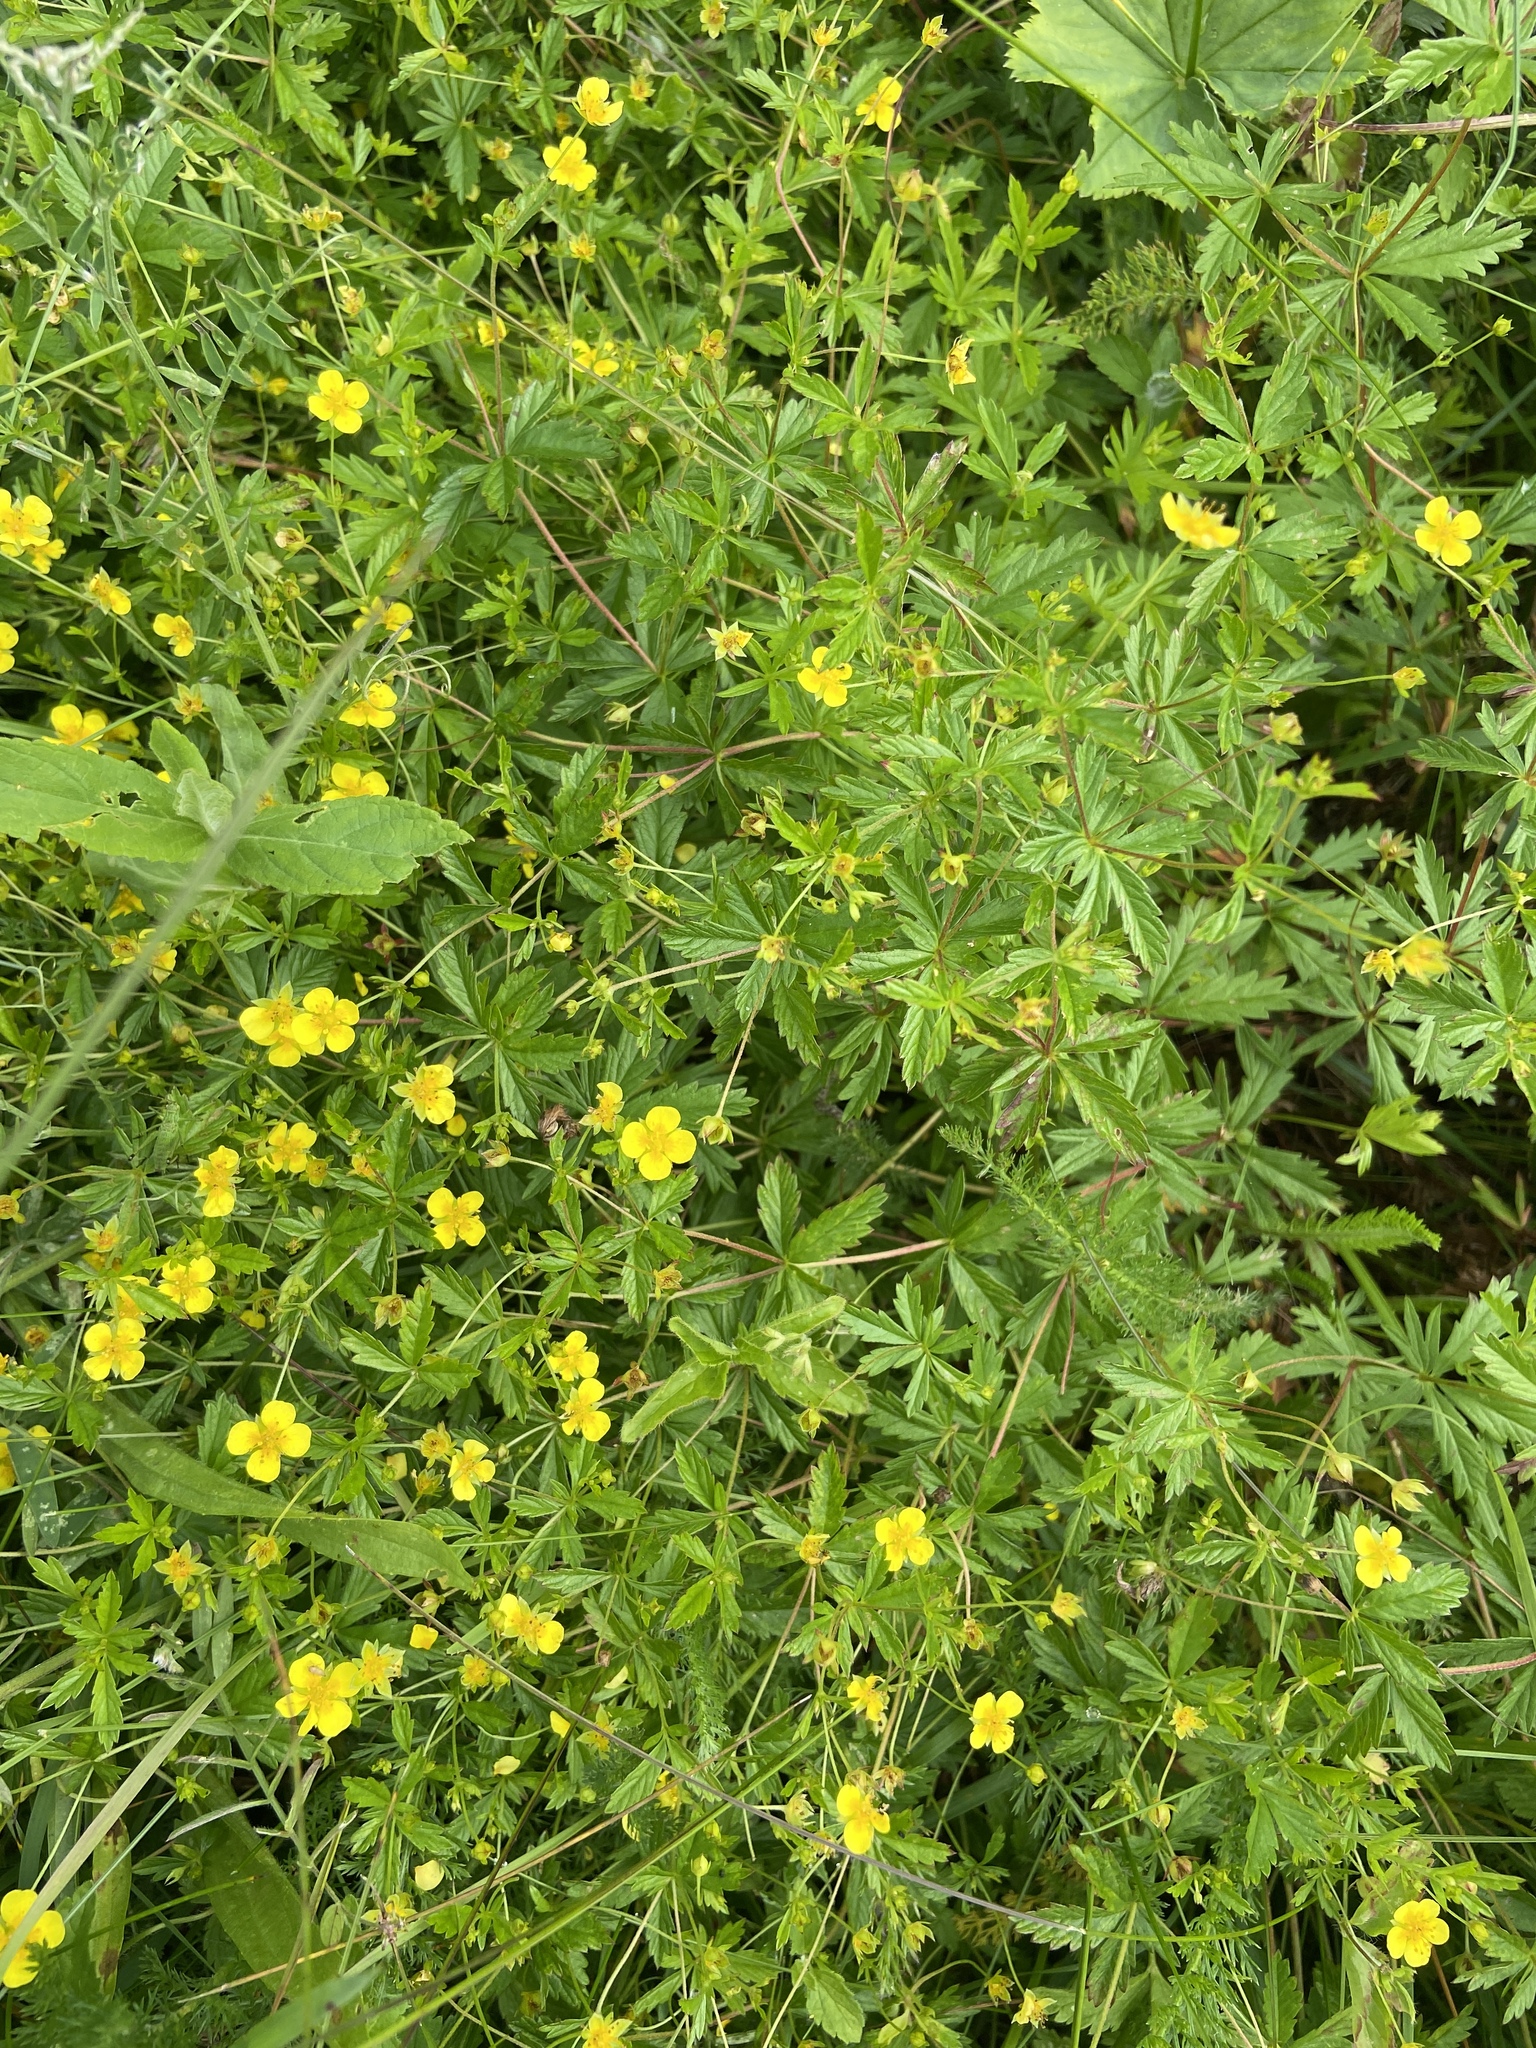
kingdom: Plantae
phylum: Tracheophyta
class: Magnoliopsida
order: Rosales
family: Rosaceae
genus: Potentilla
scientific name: Potentilla erecta
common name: Tormentil
